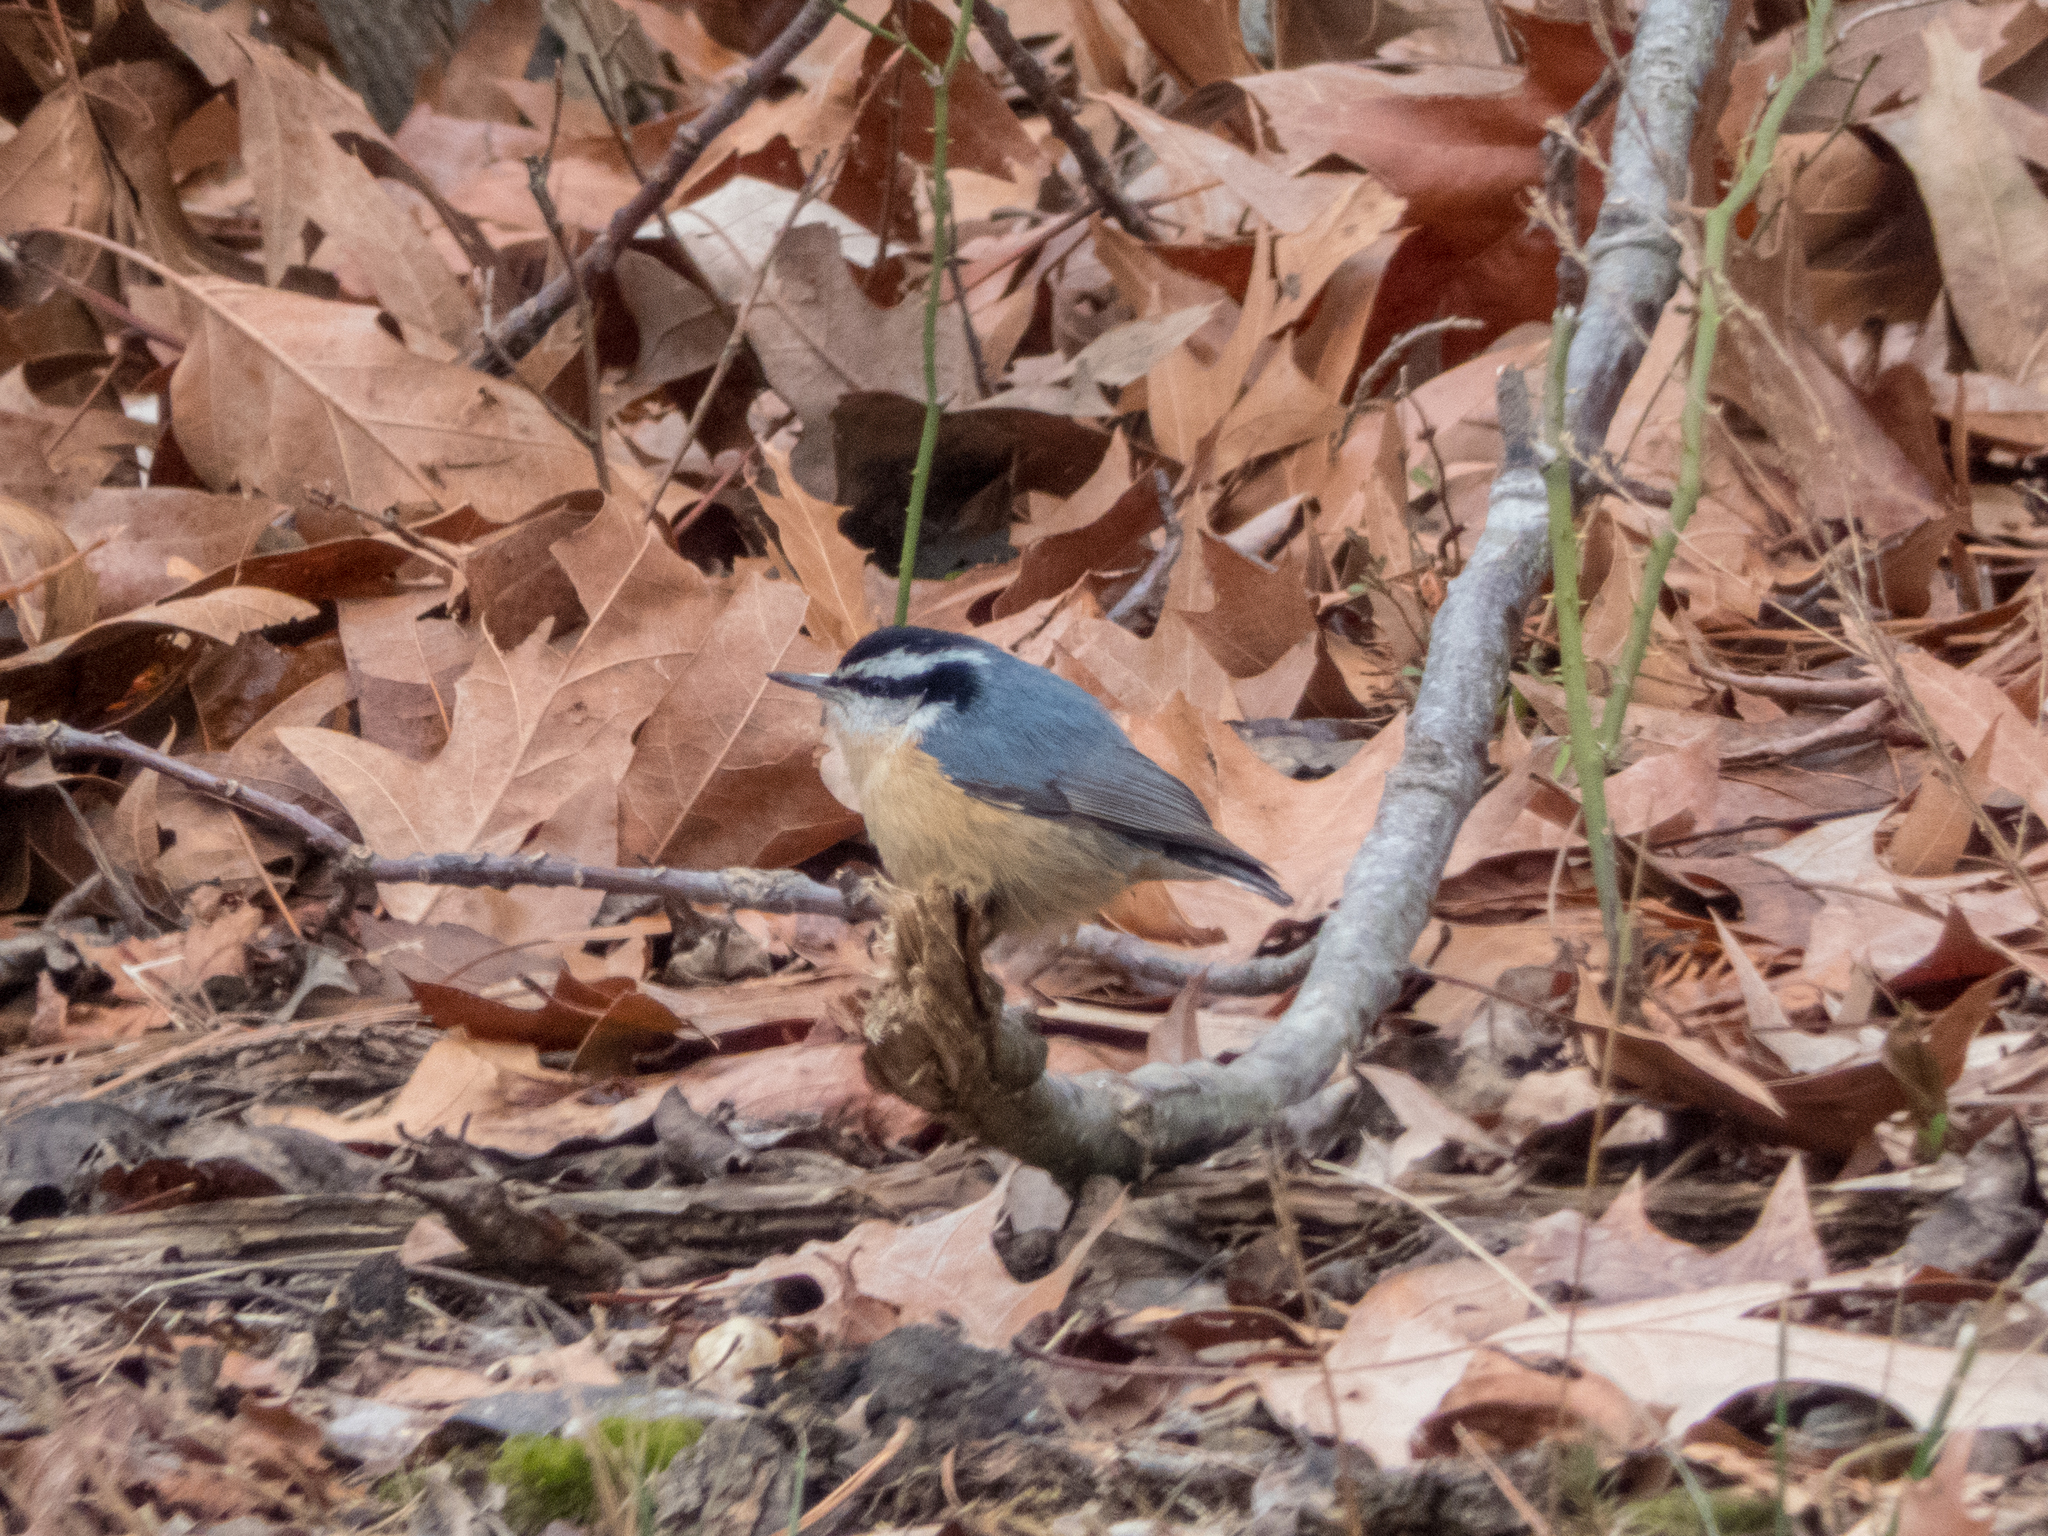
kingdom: Animalia
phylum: Chordata
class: Aves
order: Passeriformes
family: Sittidae
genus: Sitta
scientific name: Sitta canadensis
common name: Red-breasted nuthatch
